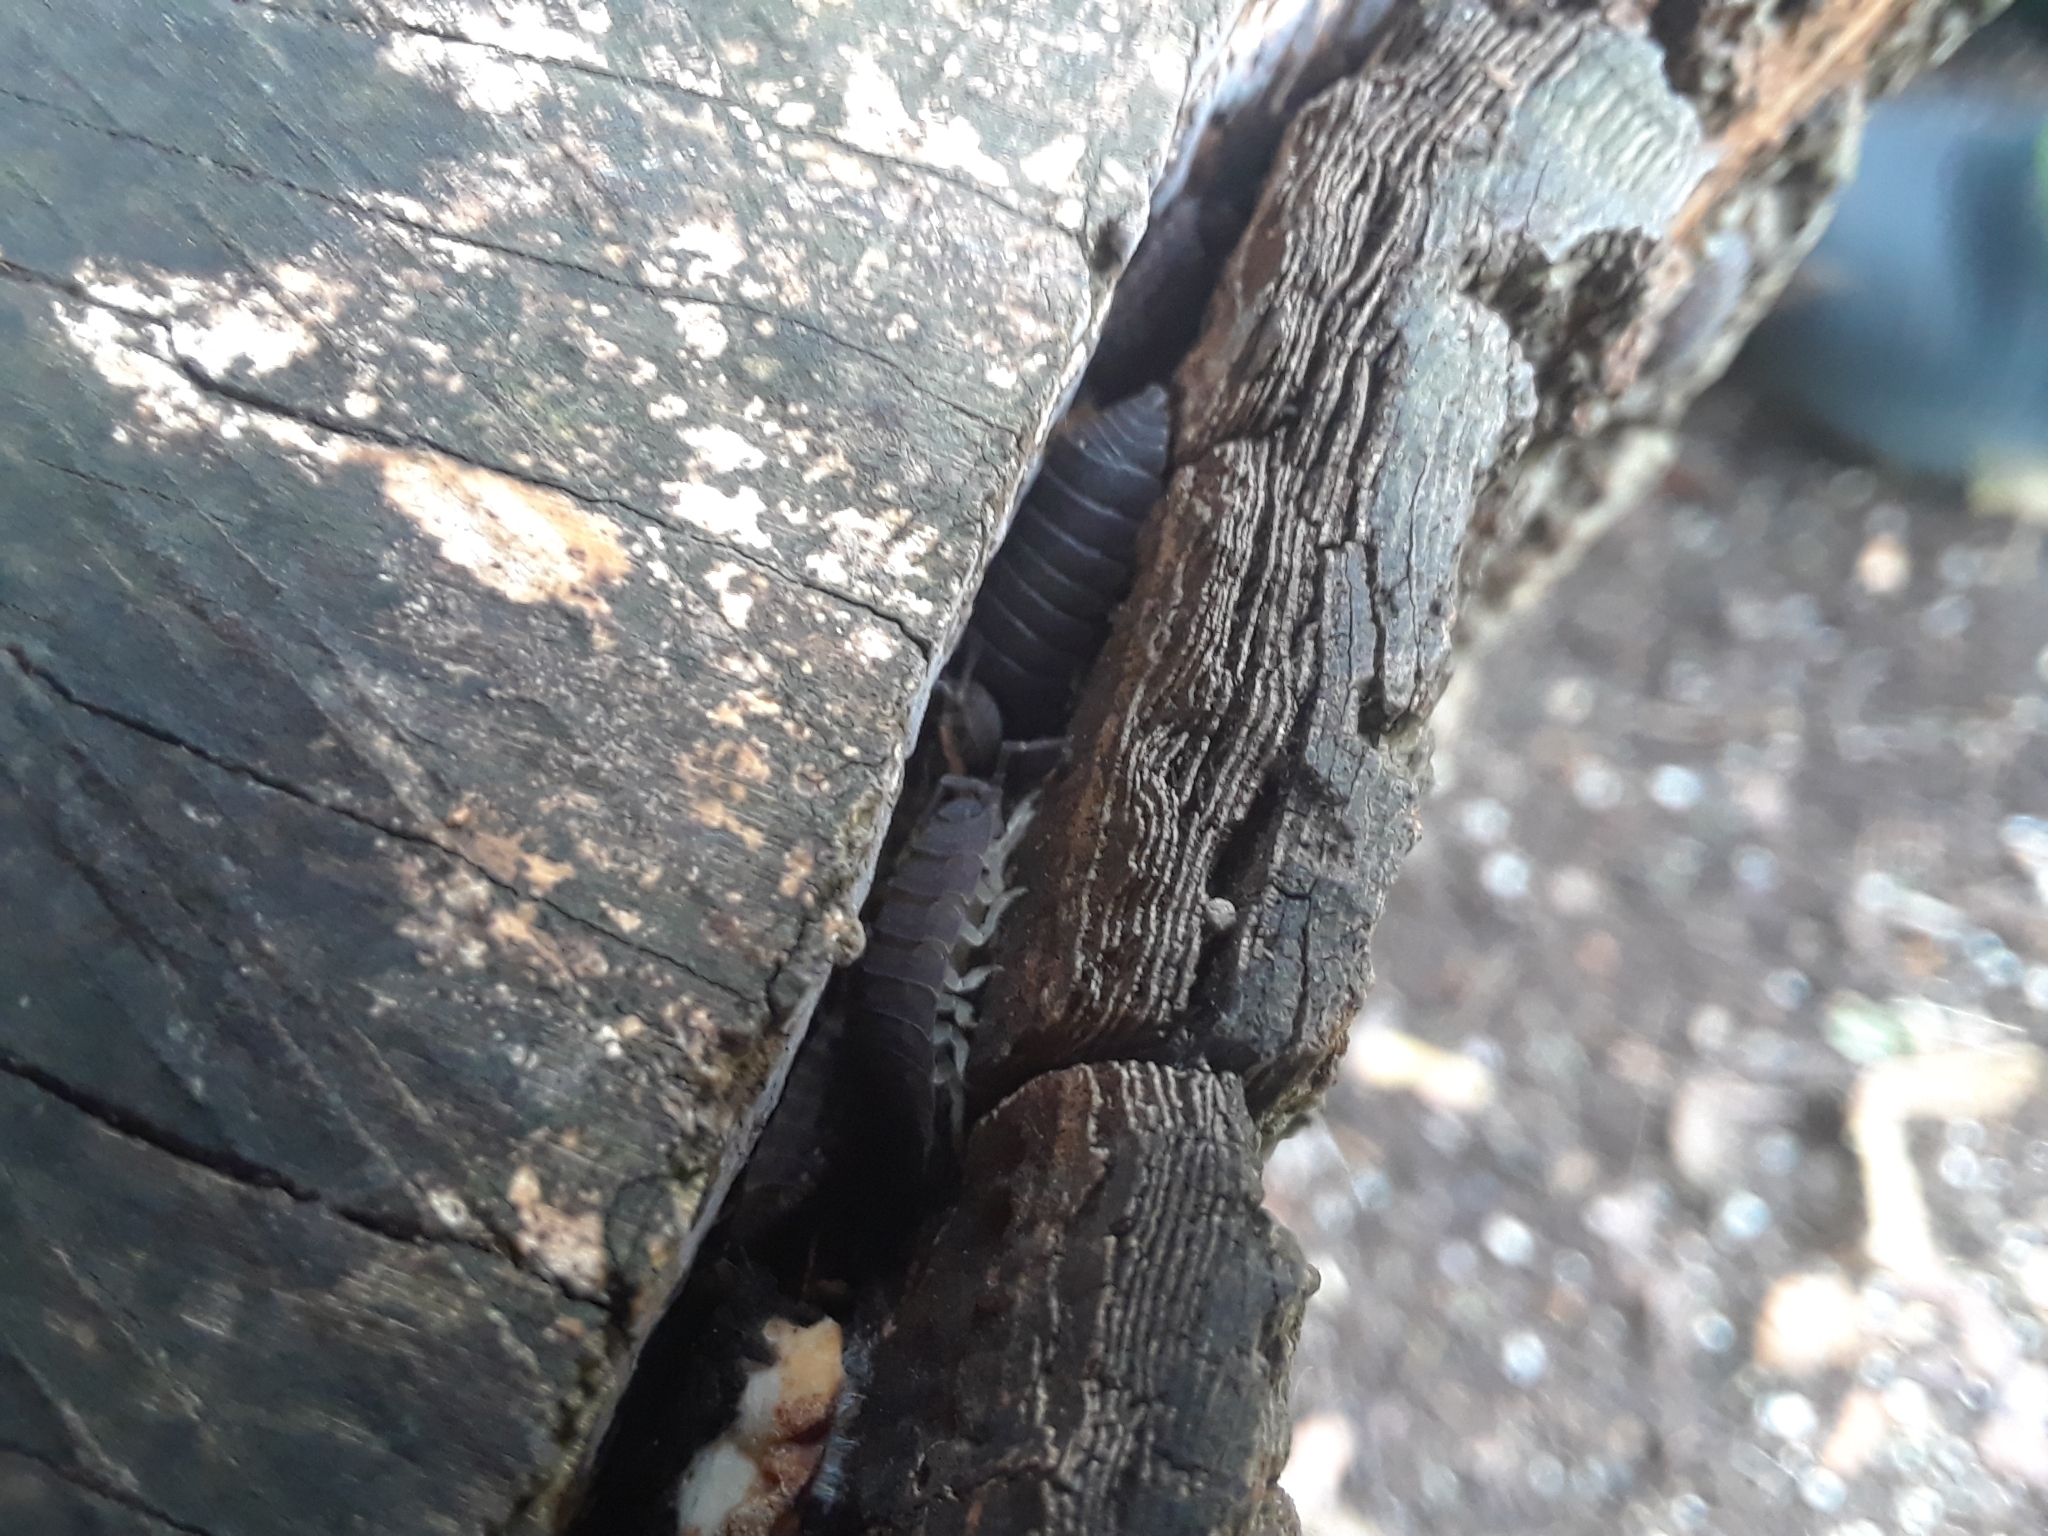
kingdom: Animalia
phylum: Arthropoda
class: Malacostraca
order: Isopoda
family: Porcellionidae
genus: Porcellio
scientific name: Porcellio scaber
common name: Common rough woodlouse
